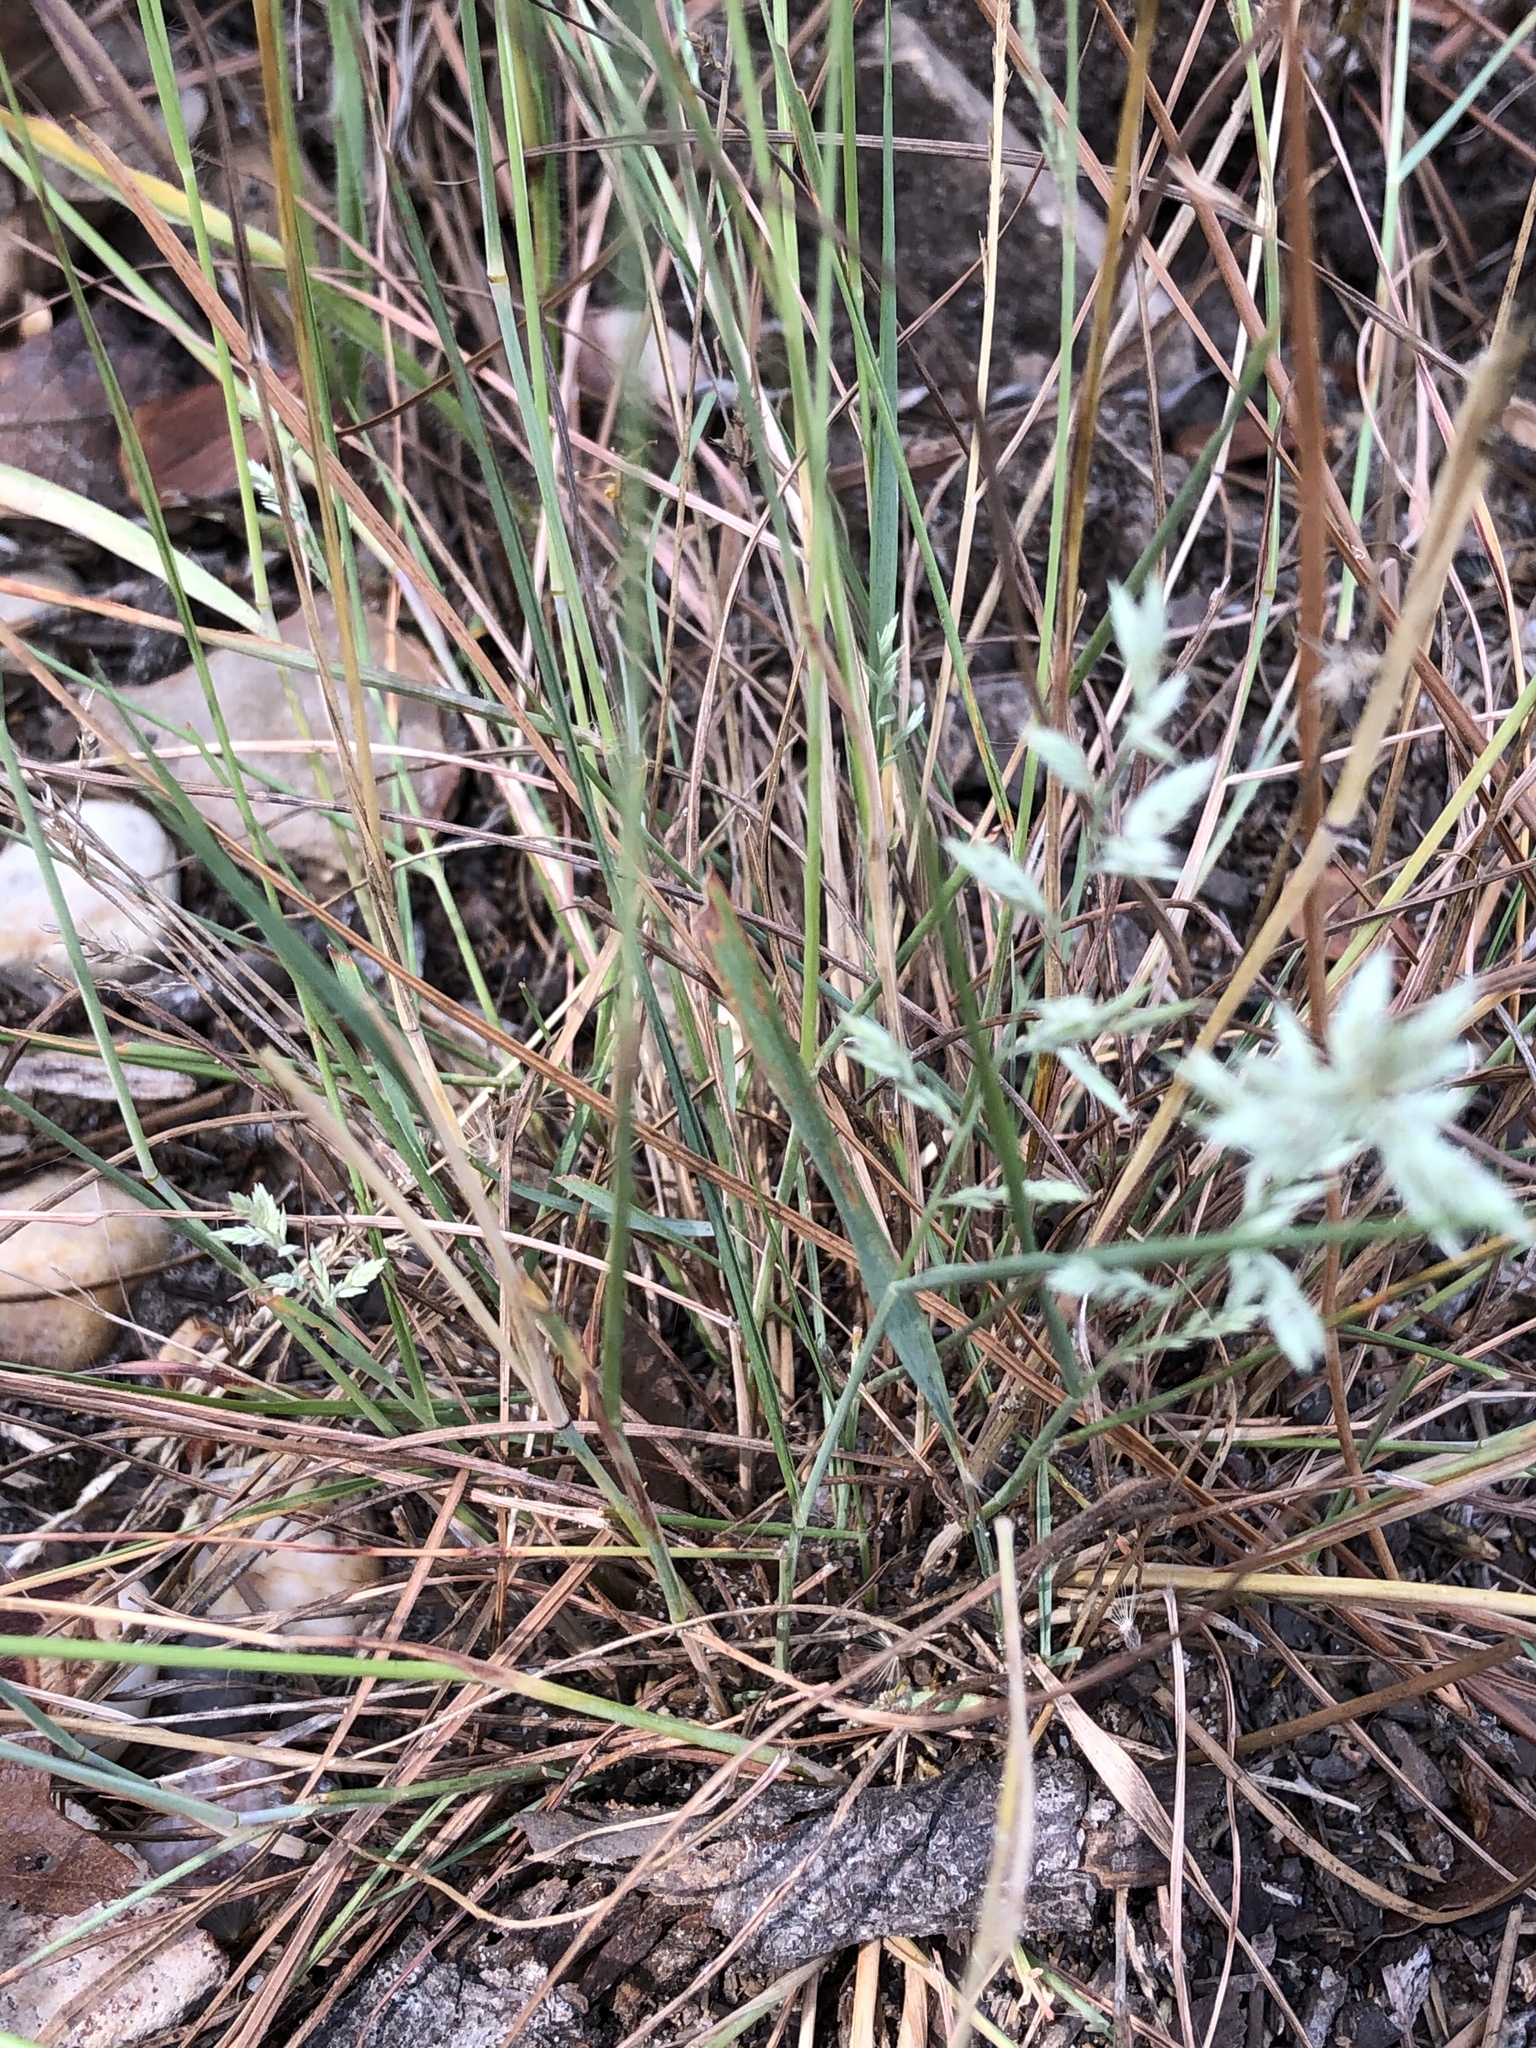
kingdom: Plantae
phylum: Tracheophyta
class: Liliopsida
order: Poales
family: Poaceae
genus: Eragrostis
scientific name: Eragrostis secundiflora
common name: Red love grass
